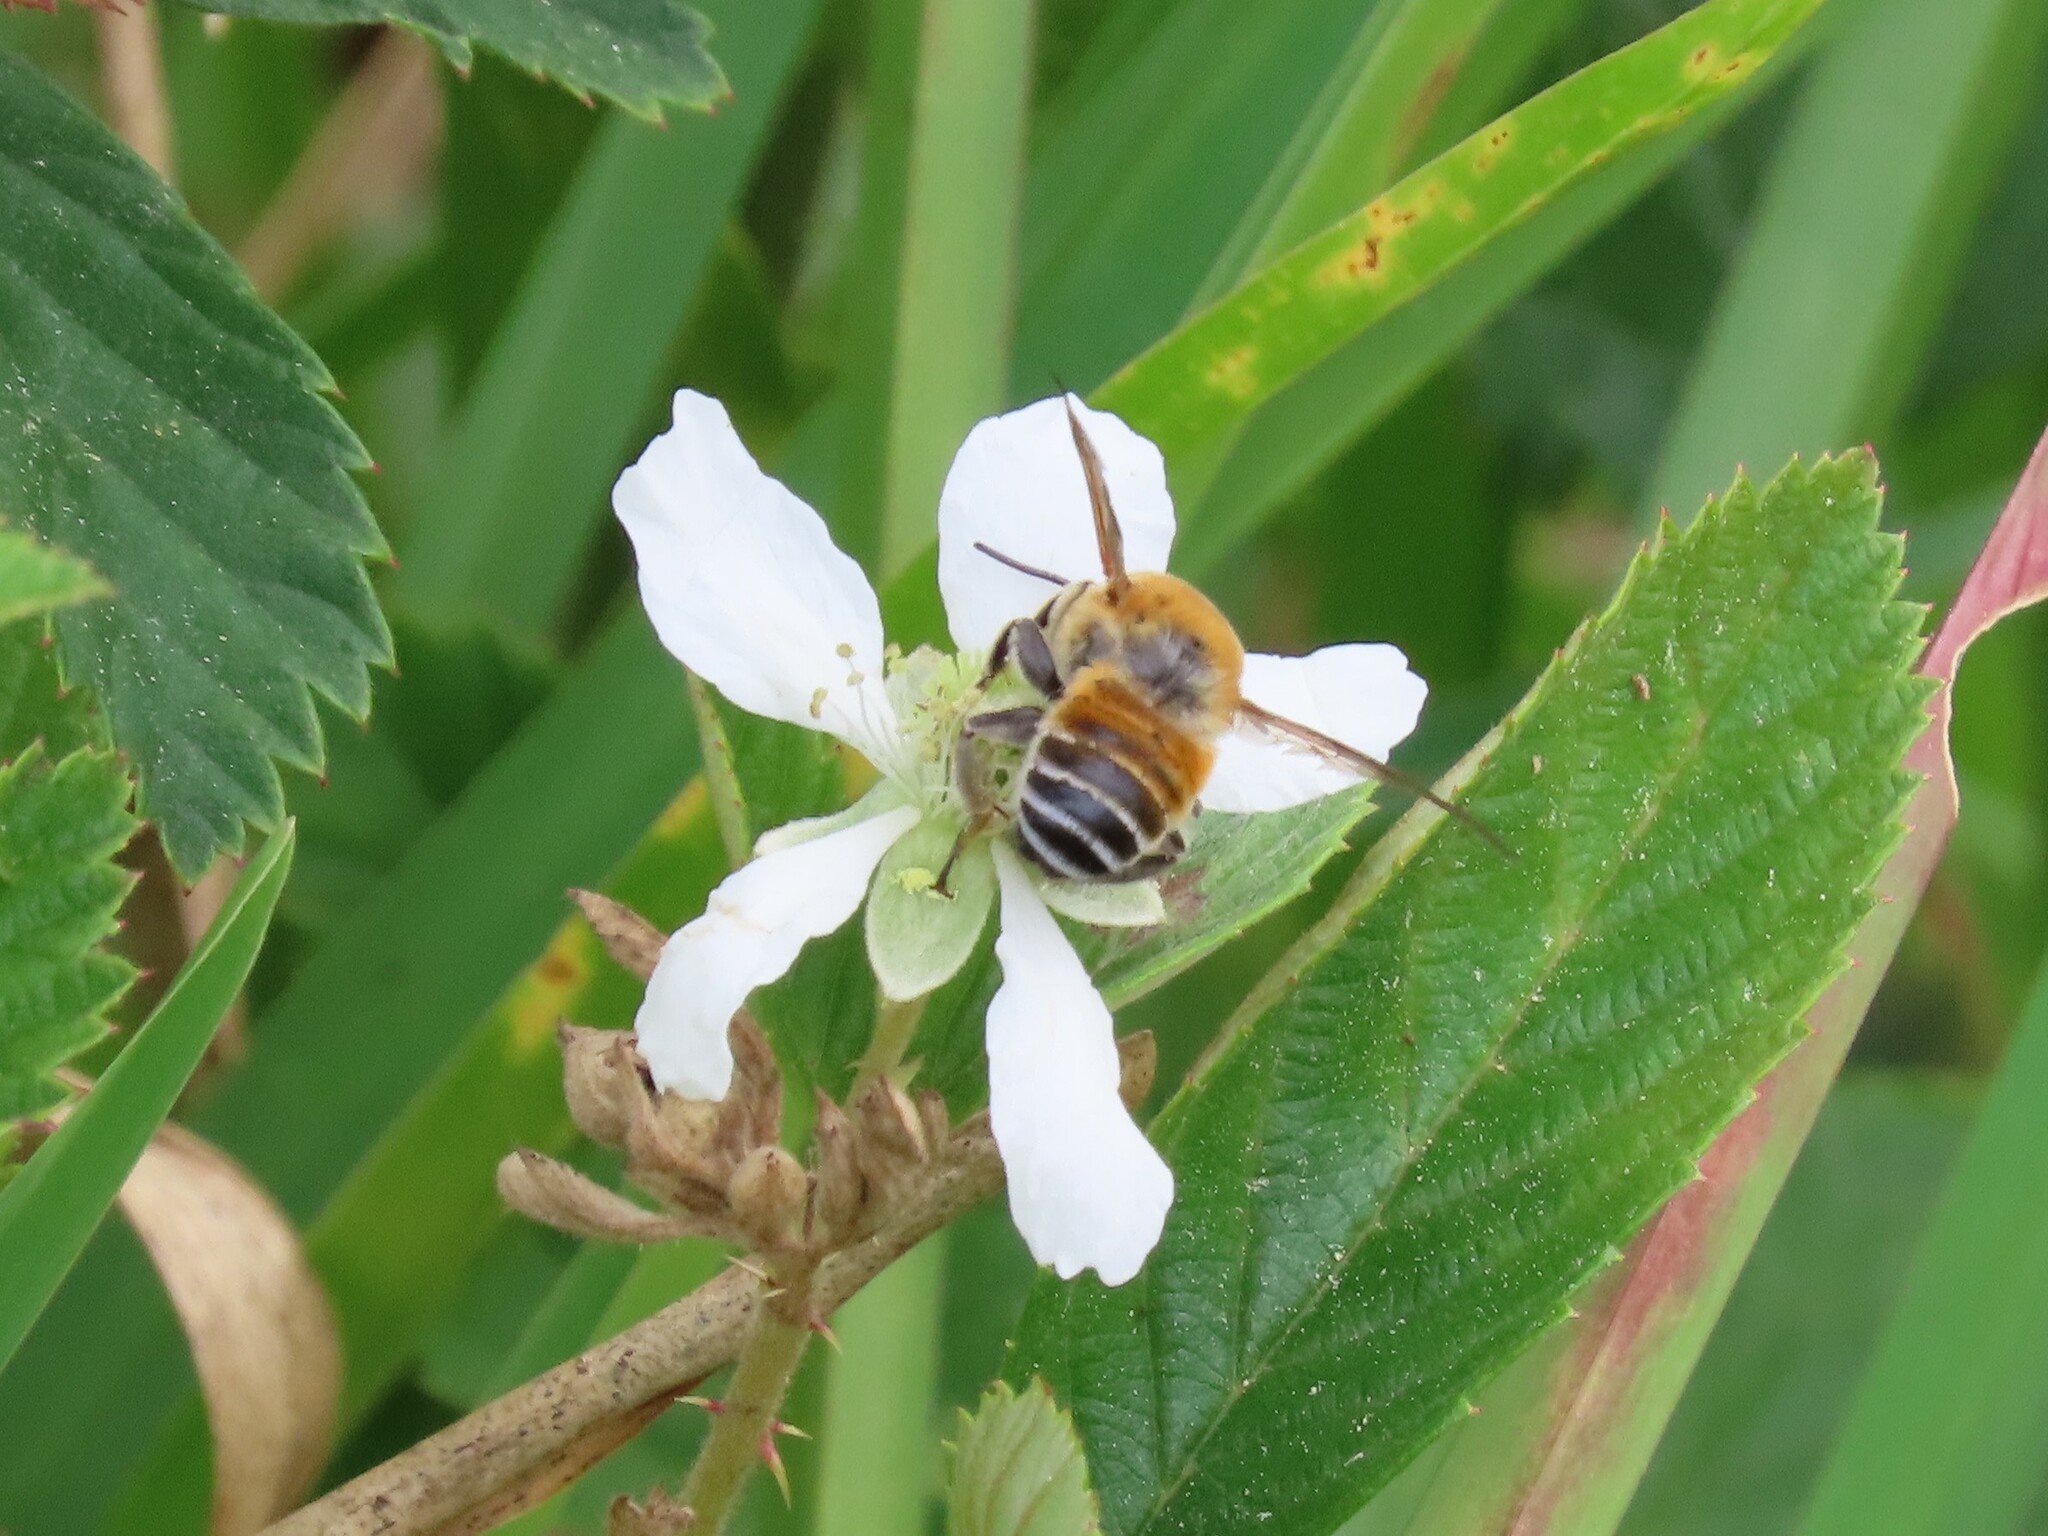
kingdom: Animalia
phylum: Arthropoda
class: Insecta
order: Hymenoptera
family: Megachilidae
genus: Megachile
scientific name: Megachile lanata
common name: Wooly wall bee
